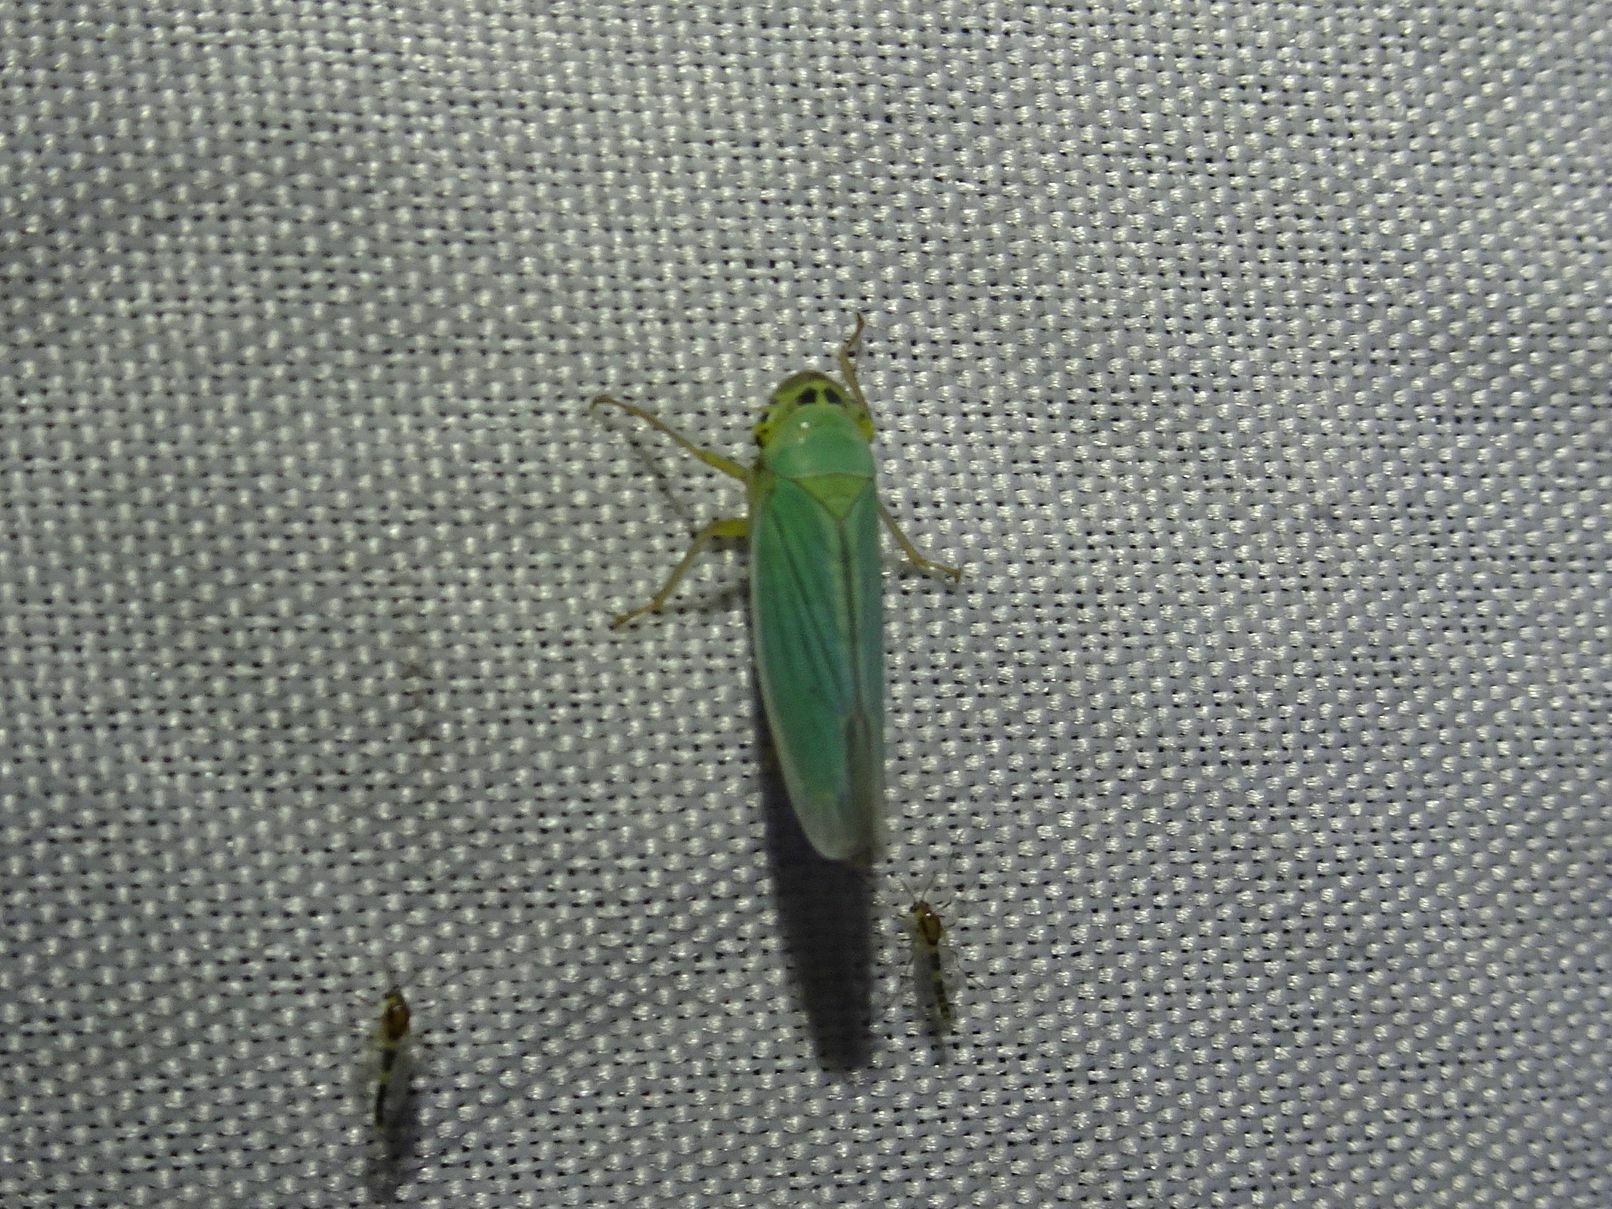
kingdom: Animalia
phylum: Arthropoda
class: Insecta
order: Hemiptera
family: Cicadellidae
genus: Cicadella
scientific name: Cicadella viridis
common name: Leafhopper
